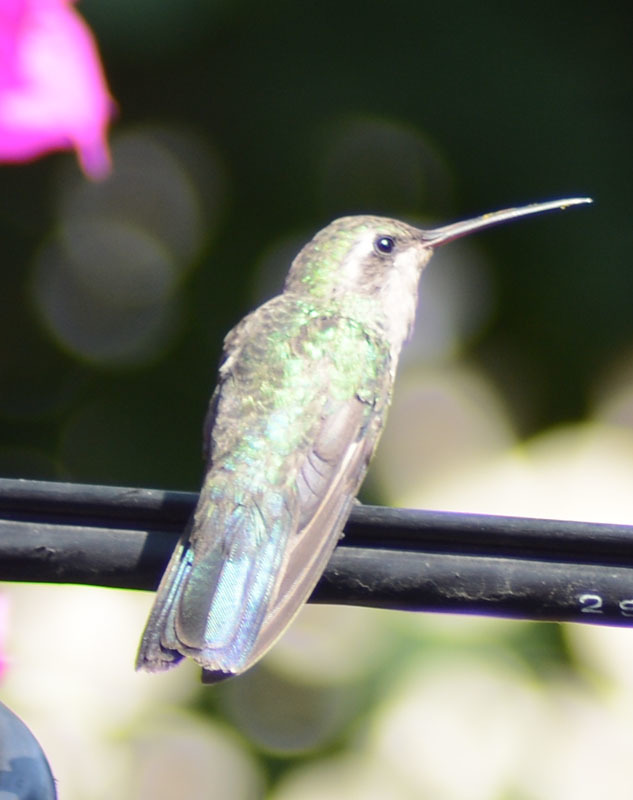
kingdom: Animalia
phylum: Chordata
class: Aves
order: Apodiformes
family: Trochilidae
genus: Cynanthus
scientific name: Cynanthus latirostris
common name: Broad-billed hummingbird
